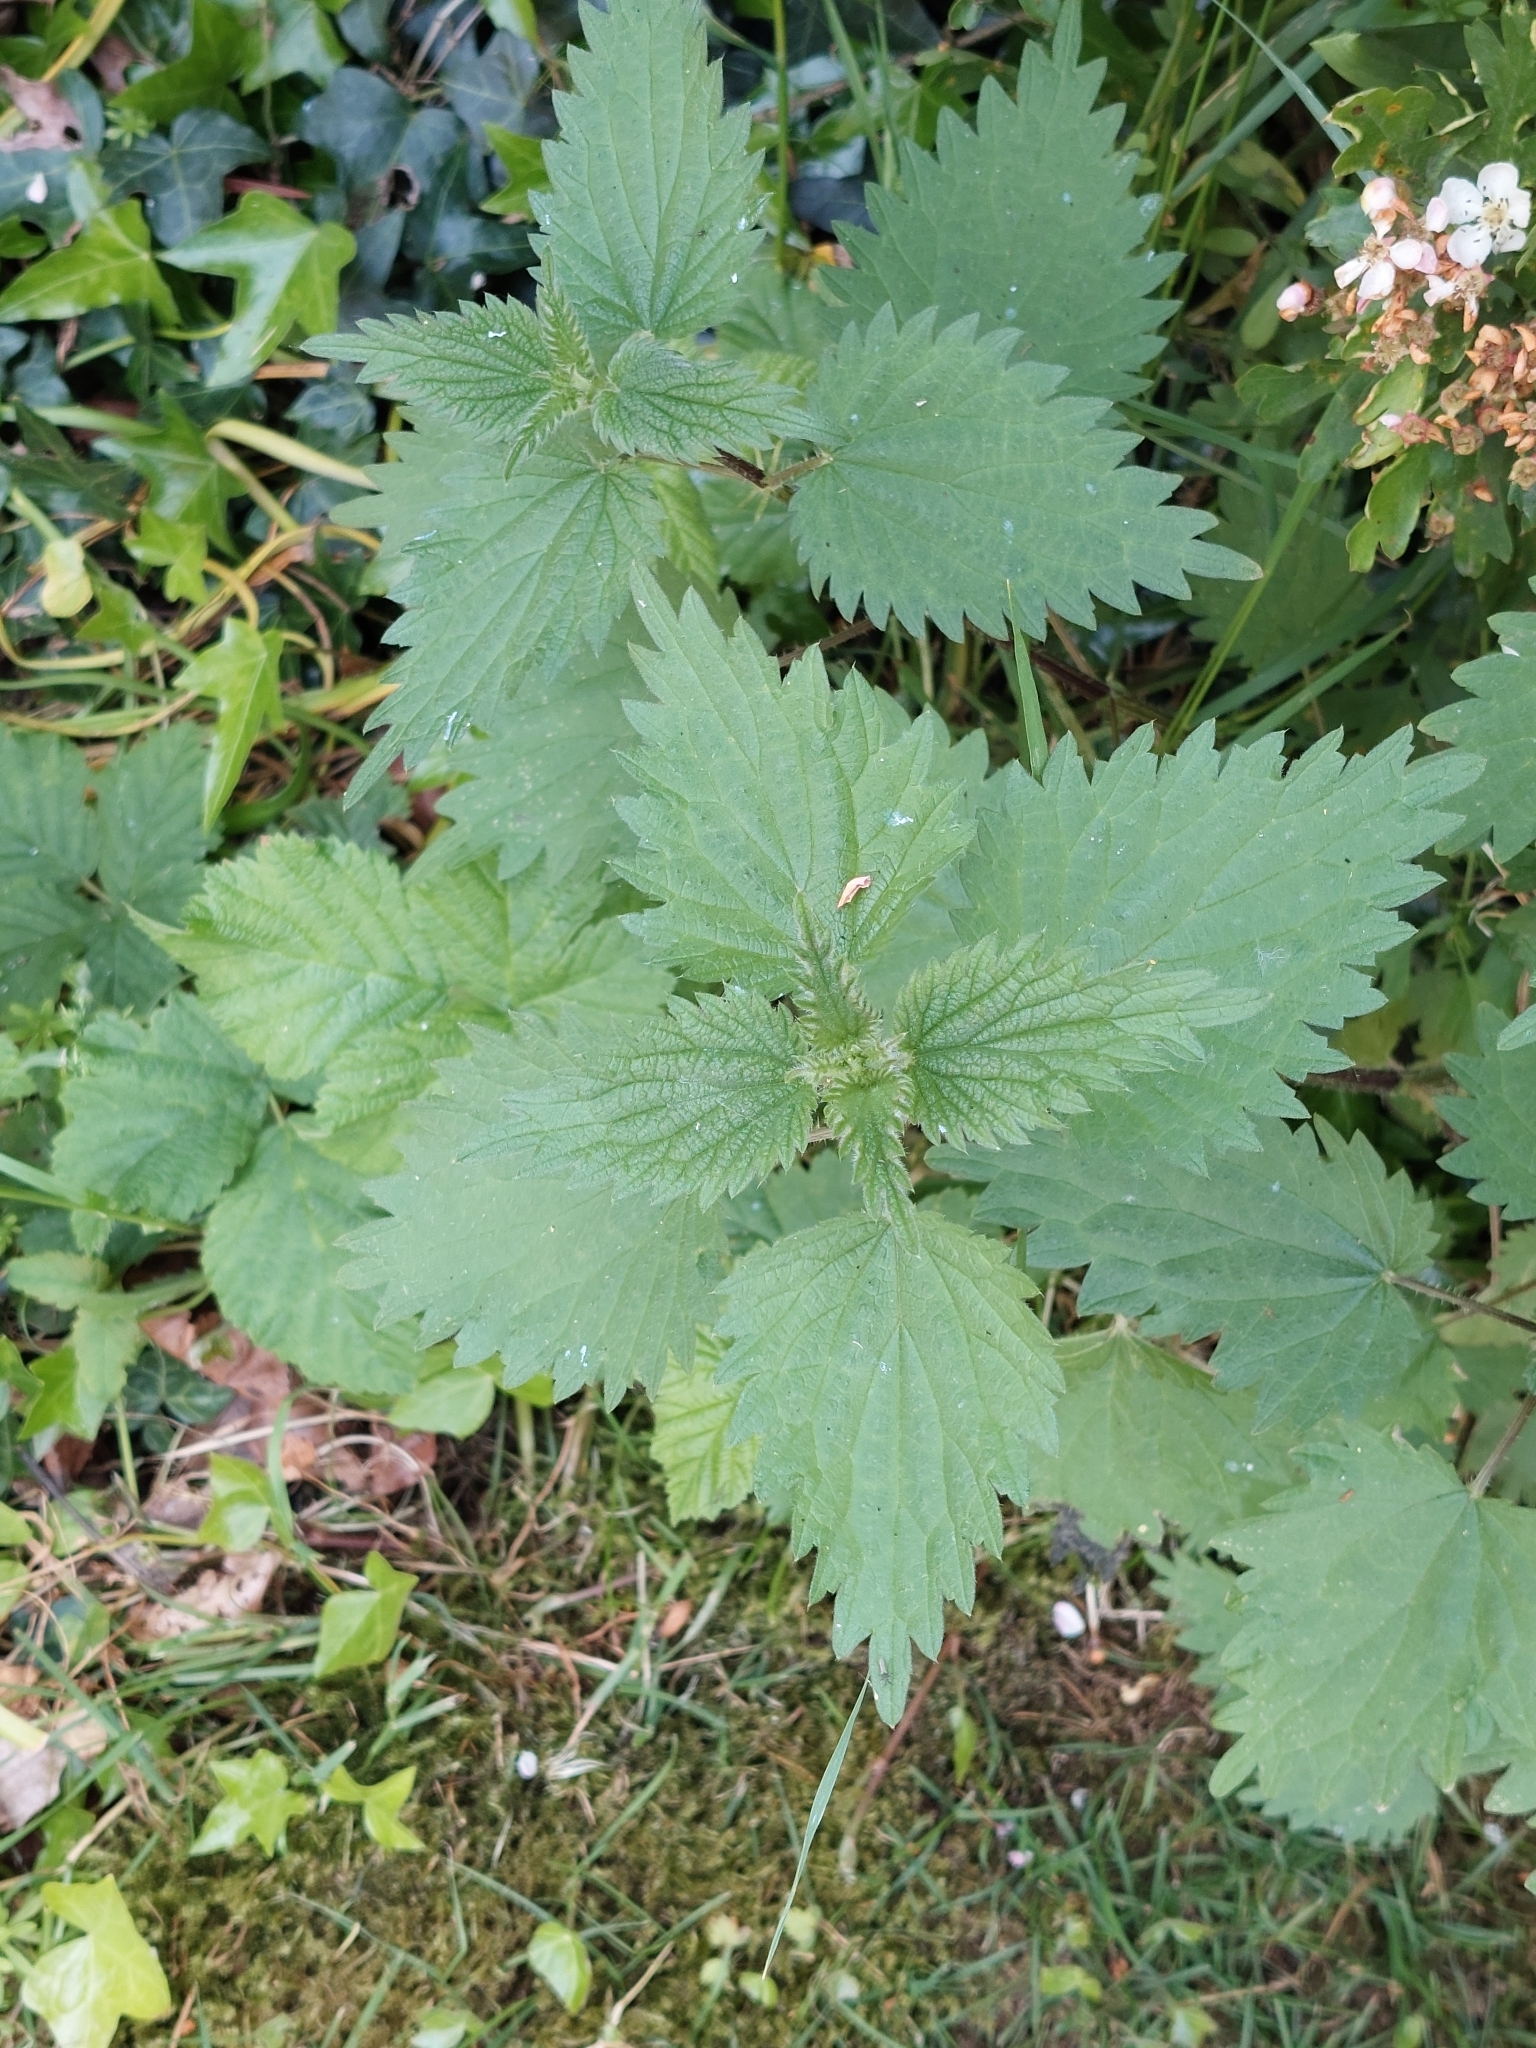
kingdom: Plantae
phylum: Tracheophyta
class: Magnoliopsida
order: Rosales
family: Urticaceae
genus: Urtica
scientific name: Urtica dioica
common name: Common nettle
